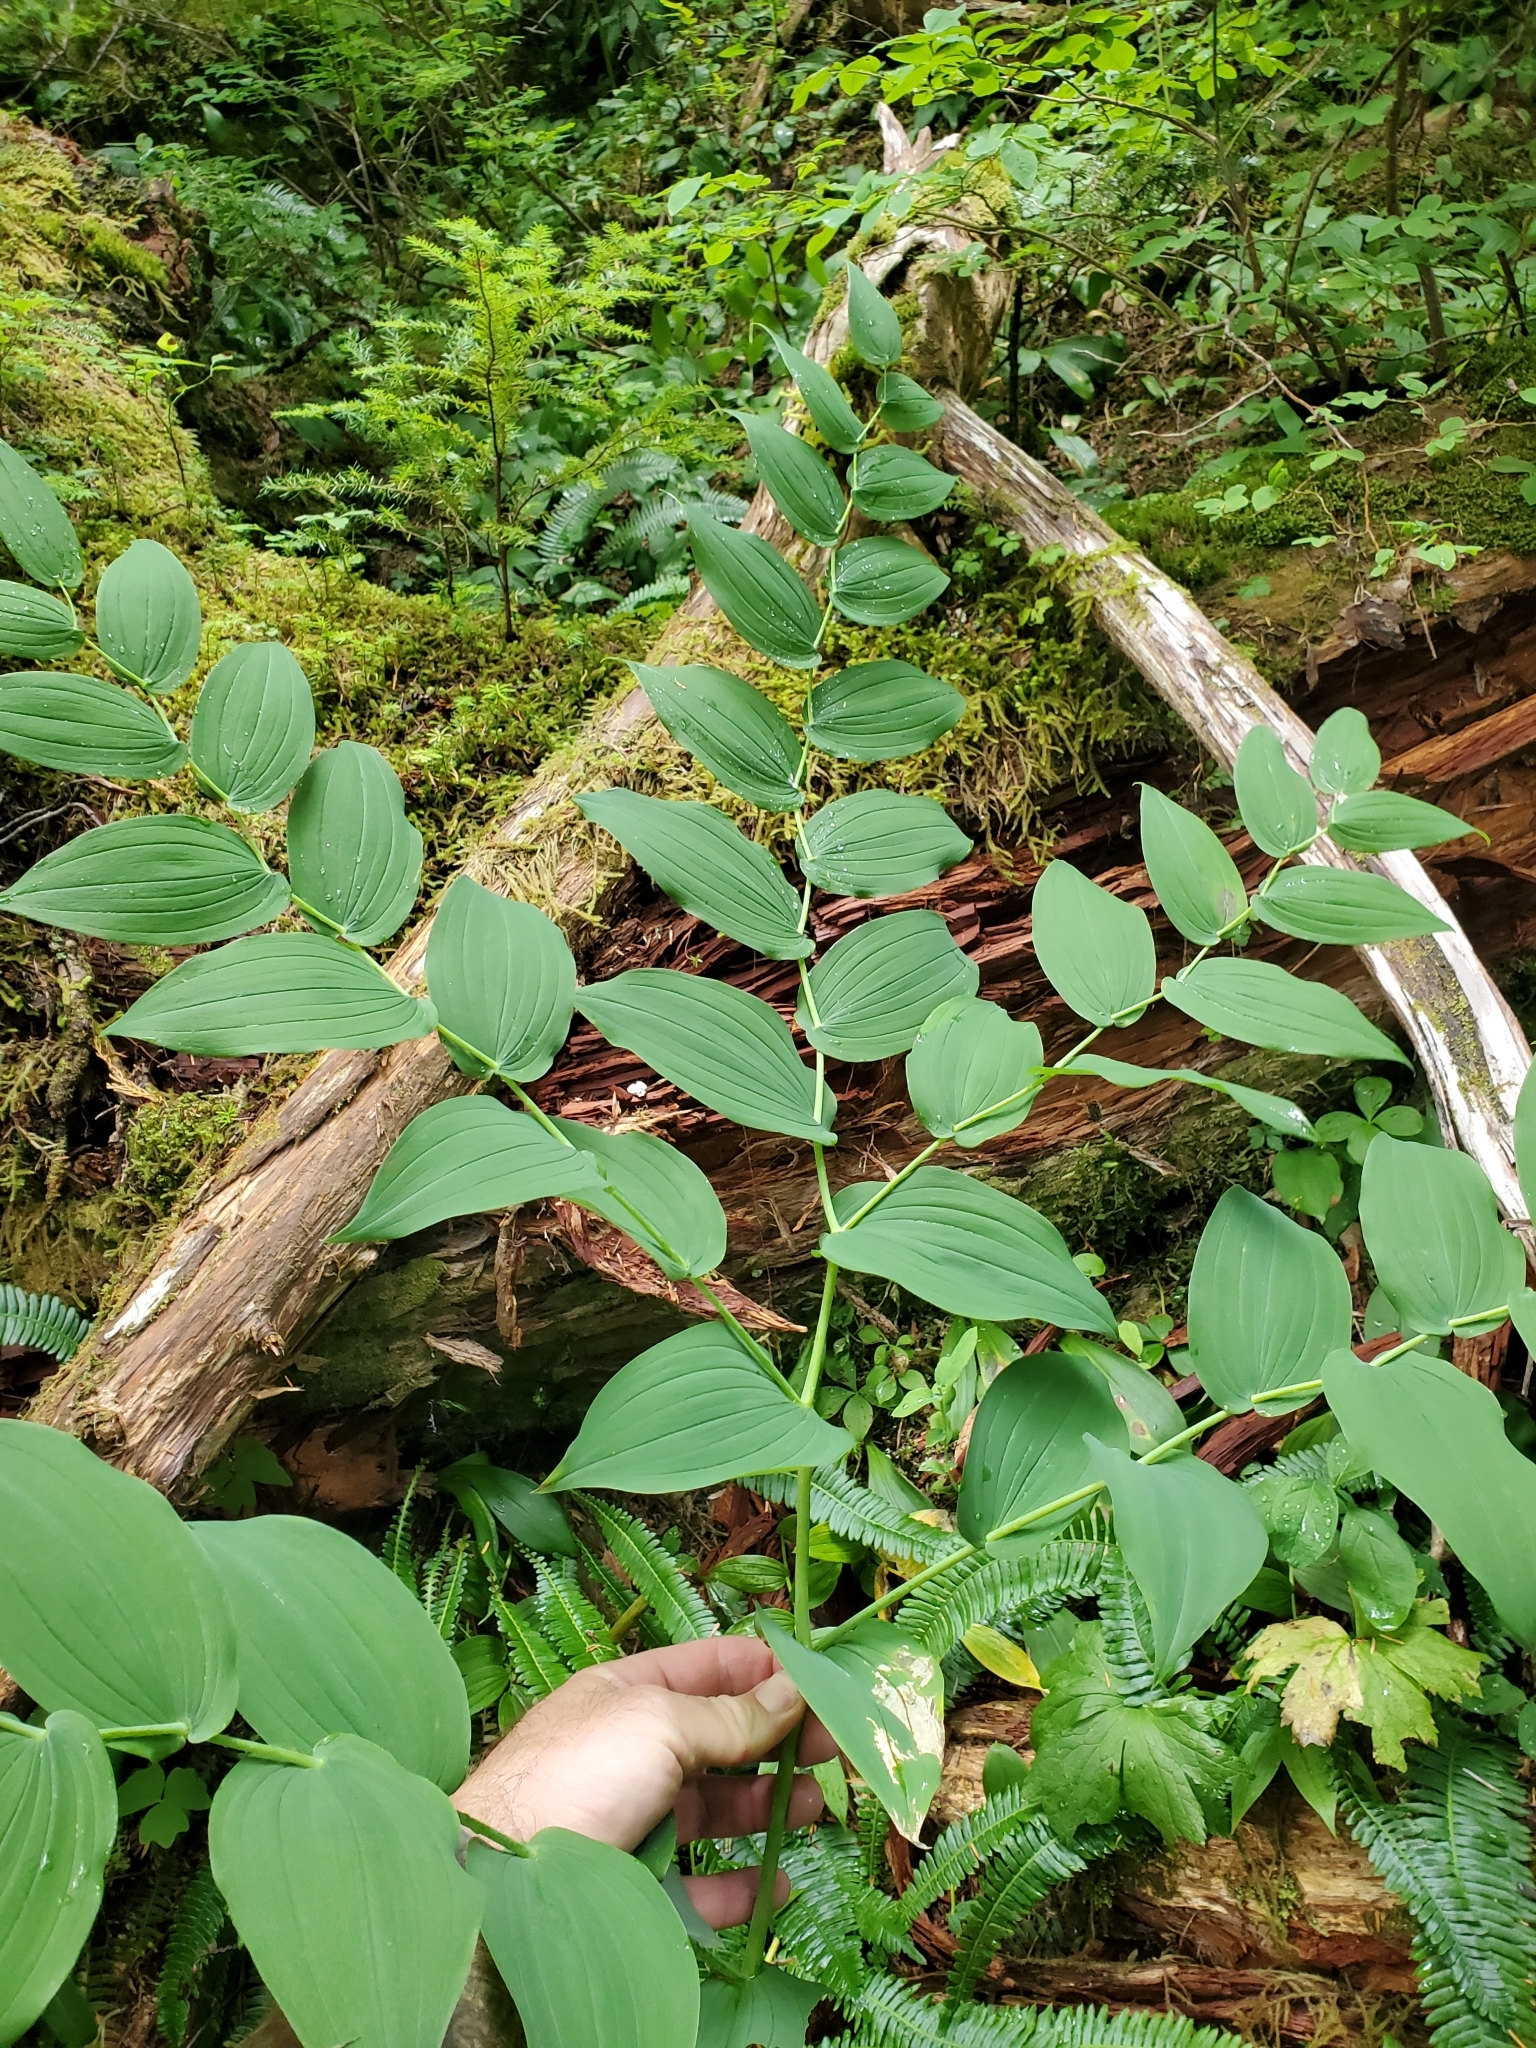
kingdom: Plantae
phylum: Tracheophyta
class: Liliopsida
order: Liliales
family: Liliaceae
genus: Streptopus
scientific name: Streptopus amplexifolius
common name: Clasp twisted stalk
